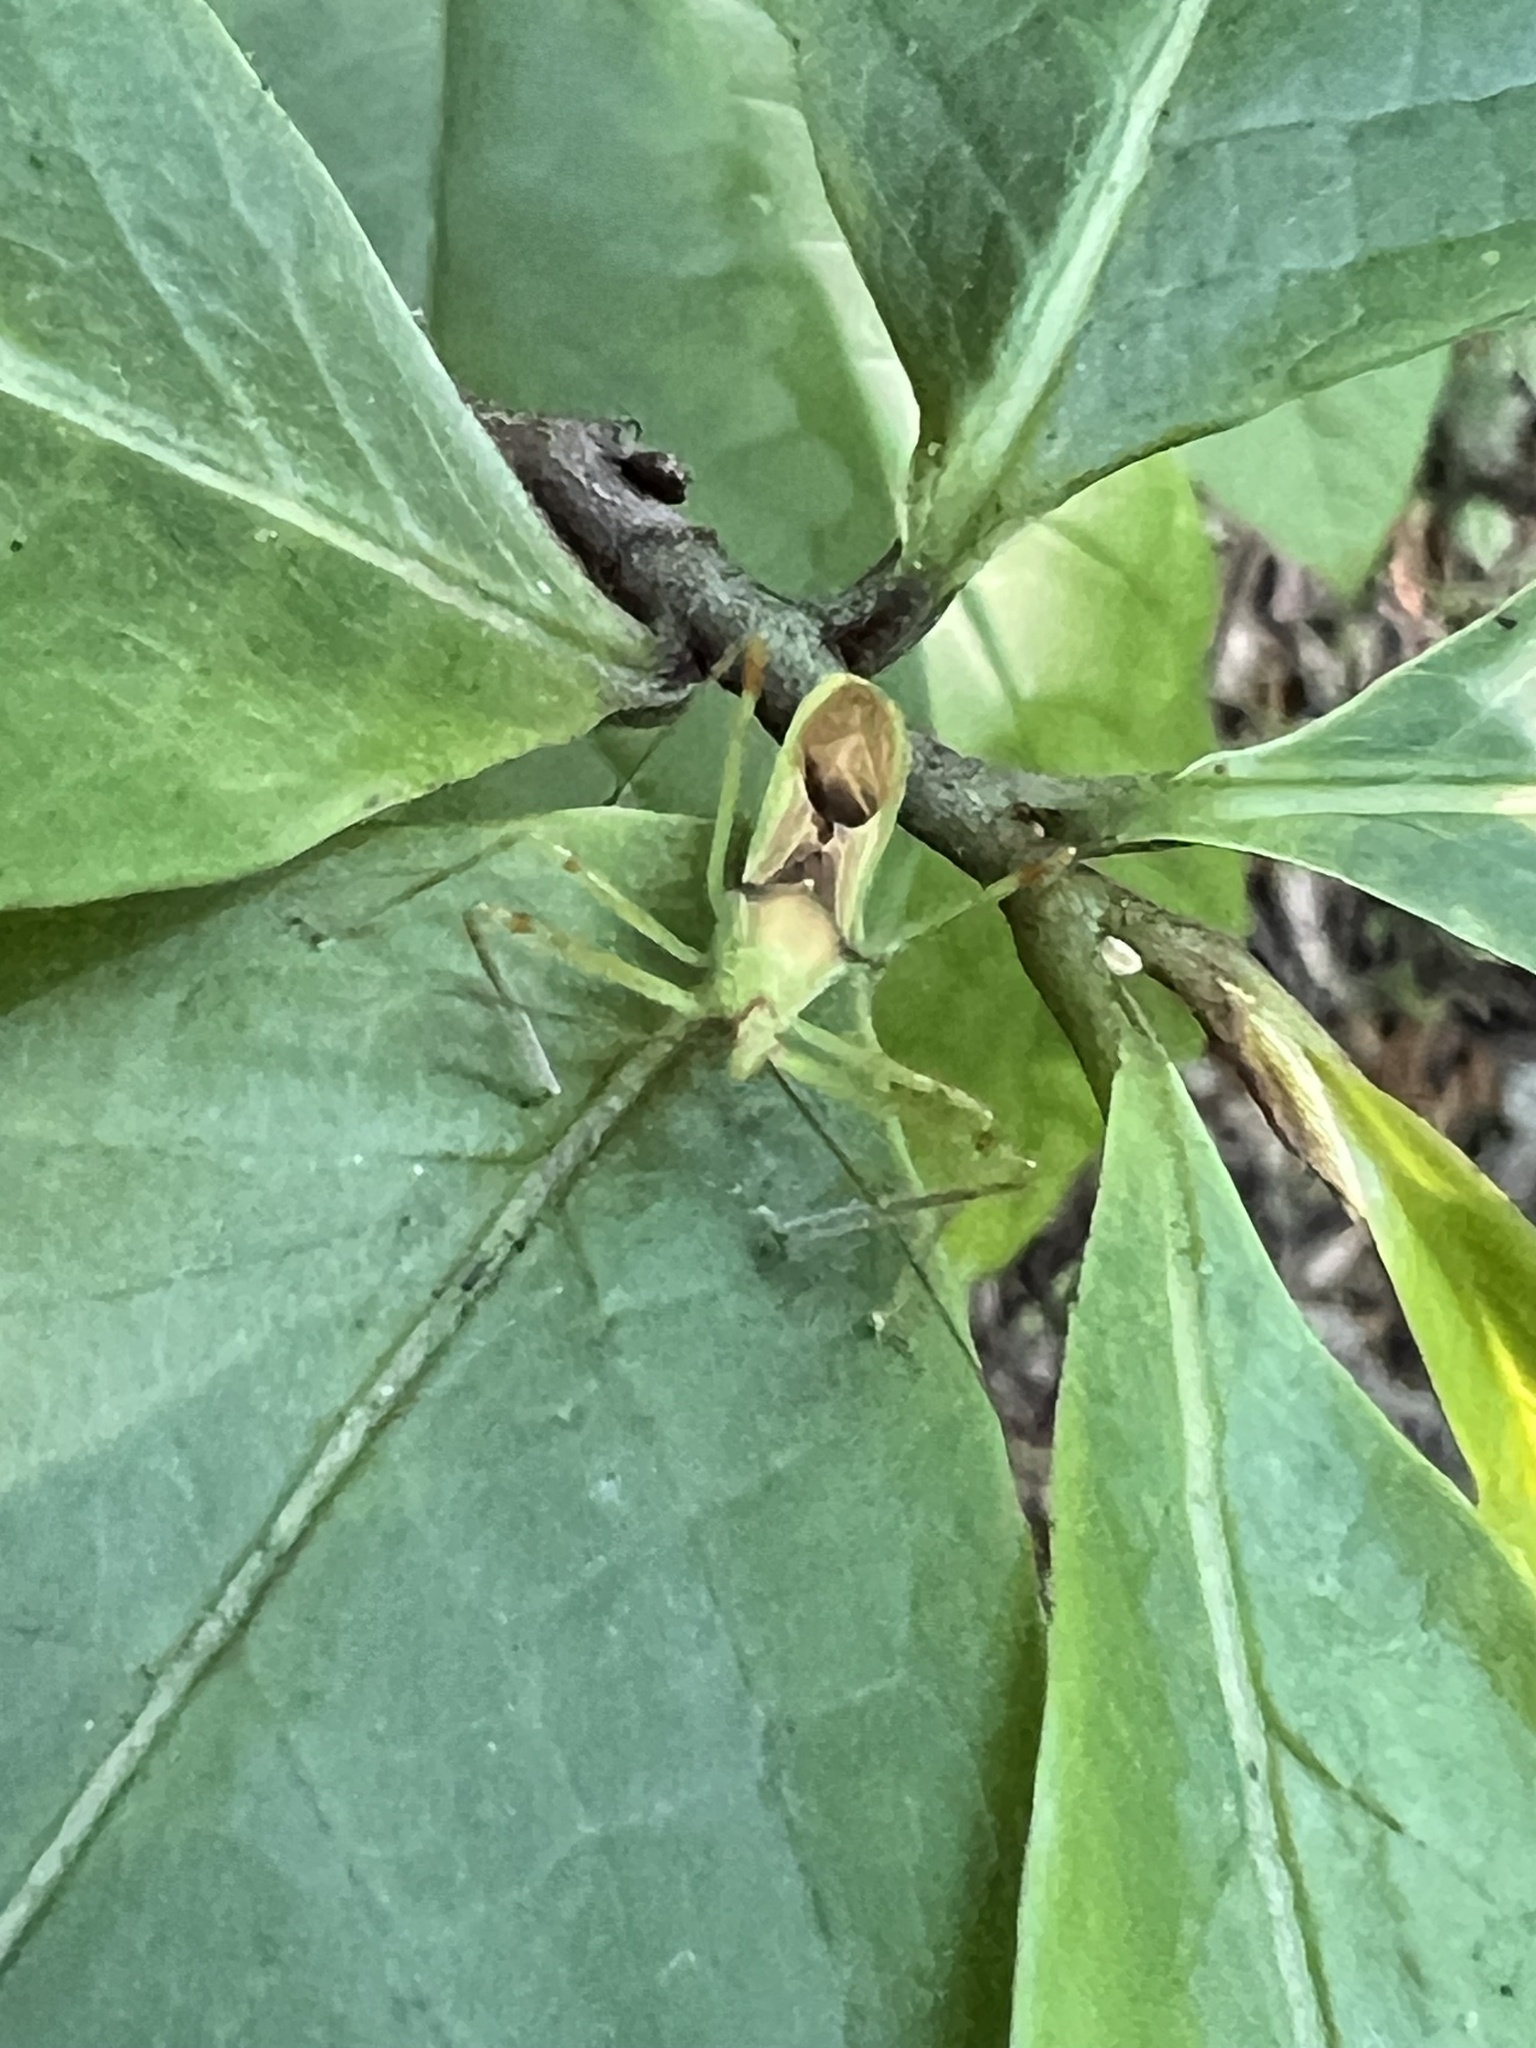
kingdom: Animalia
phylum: Arthropoda
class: Insecta
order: Hemiptera
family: Reduviidae
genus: Zelus
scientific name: Zelus luridus
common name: Pale green assassin bug
